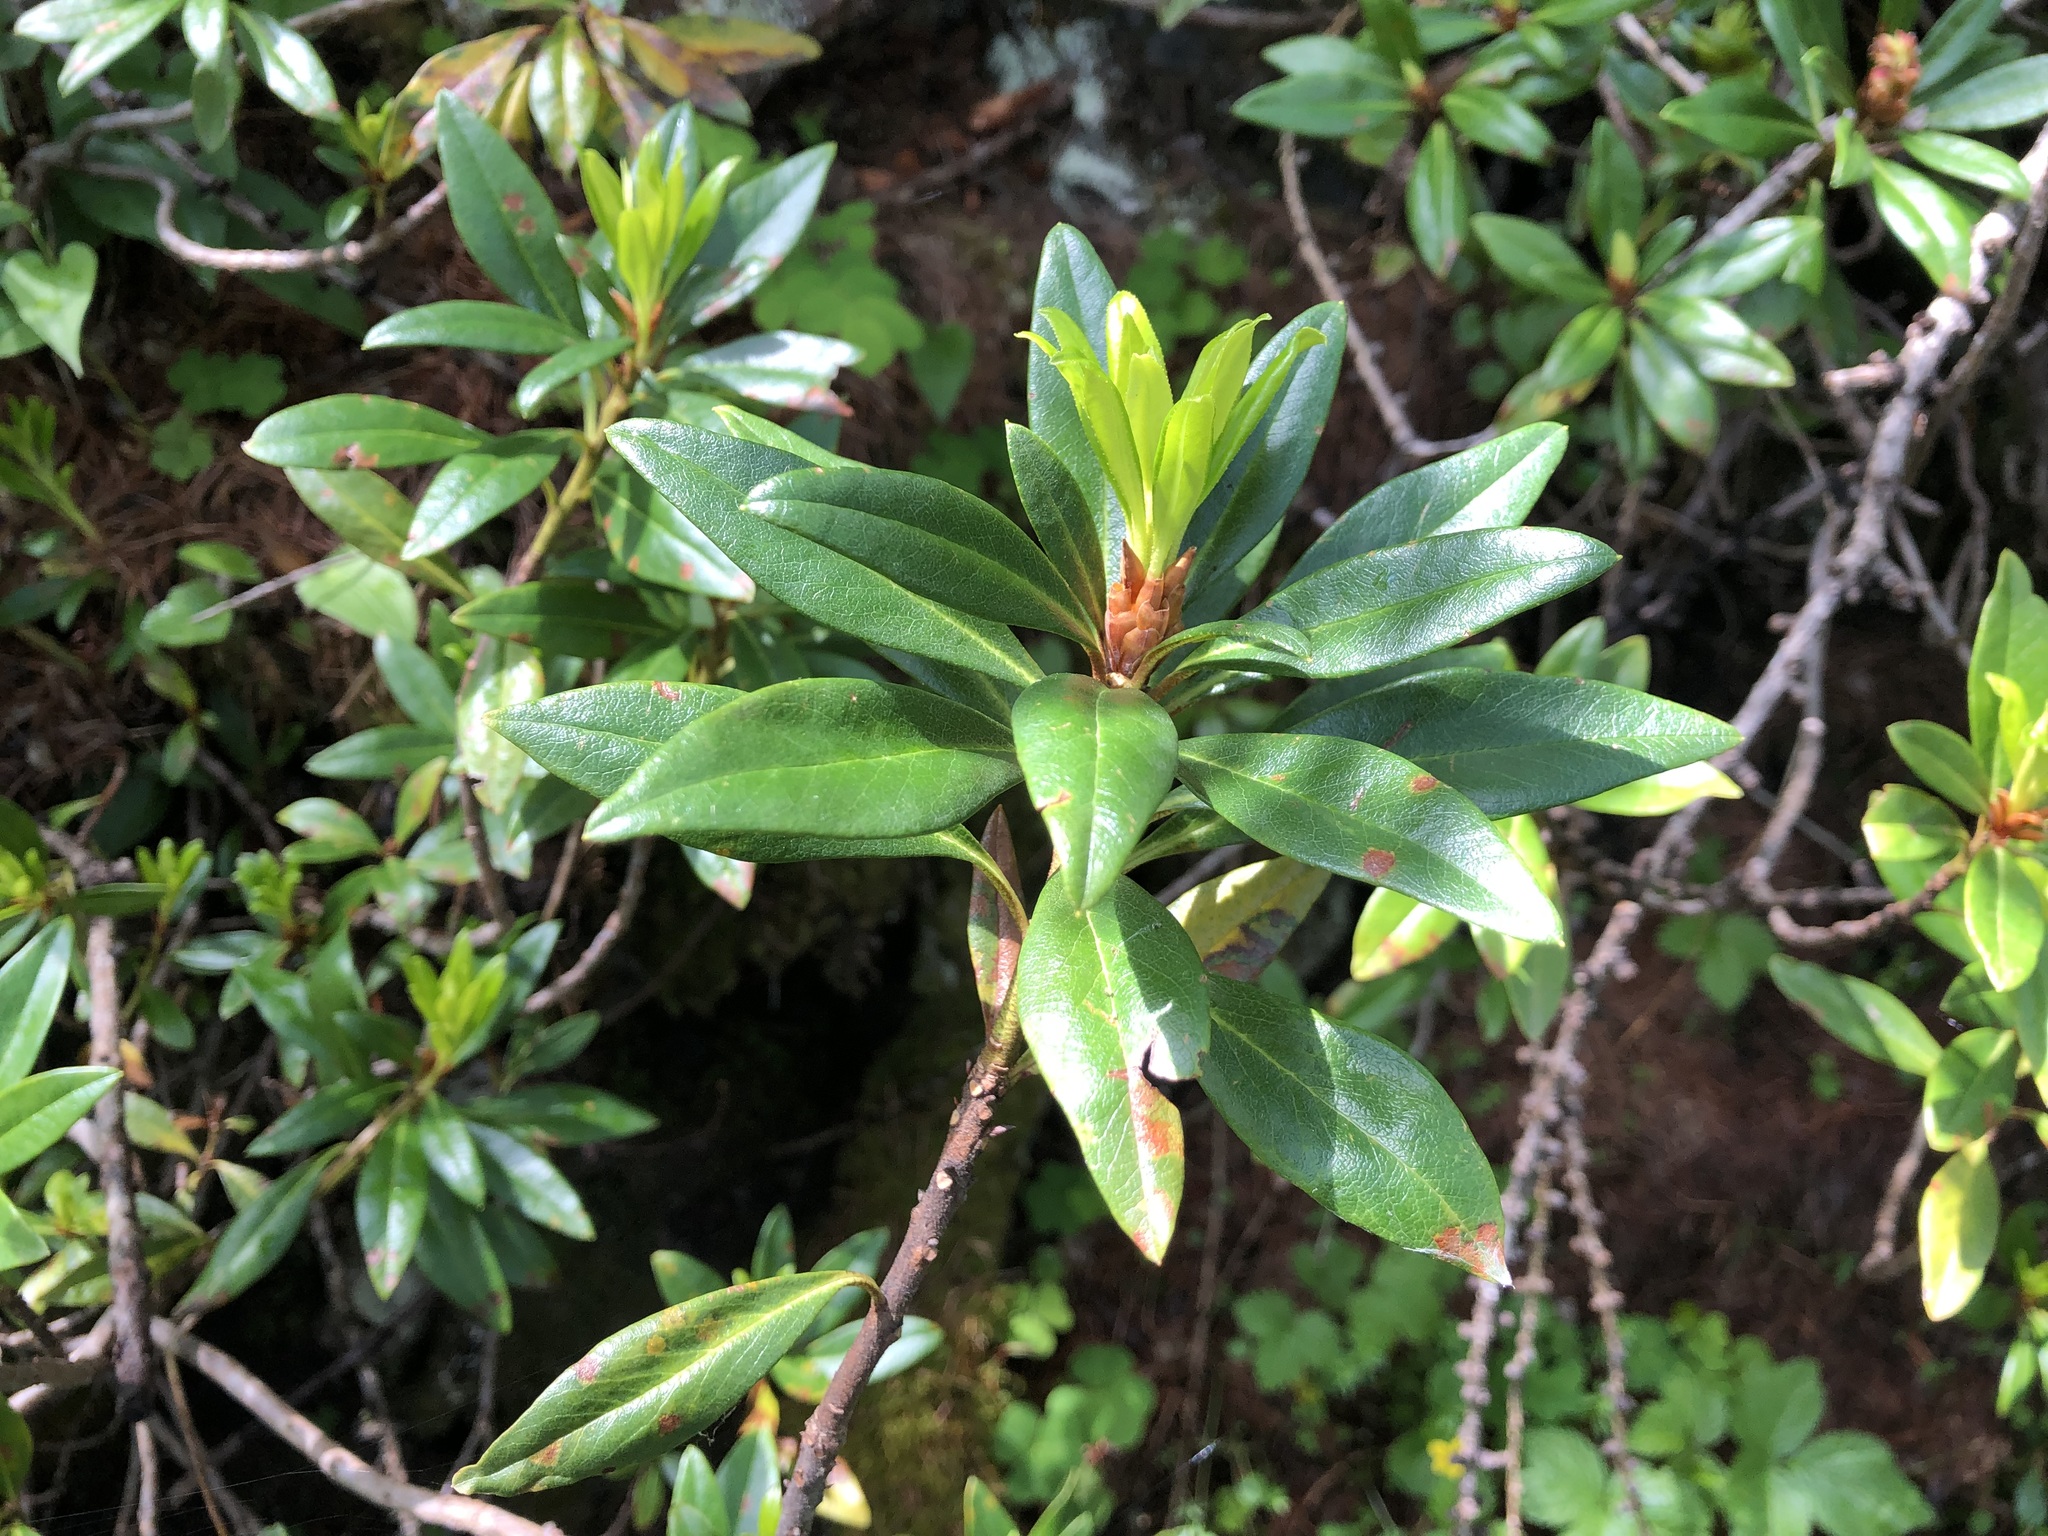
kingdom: Plantae
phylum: Tracheophyta
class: Magnoliopsida
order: Ericales
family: Ericaceae
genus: Rhododendron
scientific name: Rhododendron ferrugineum
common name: Alpenrose
